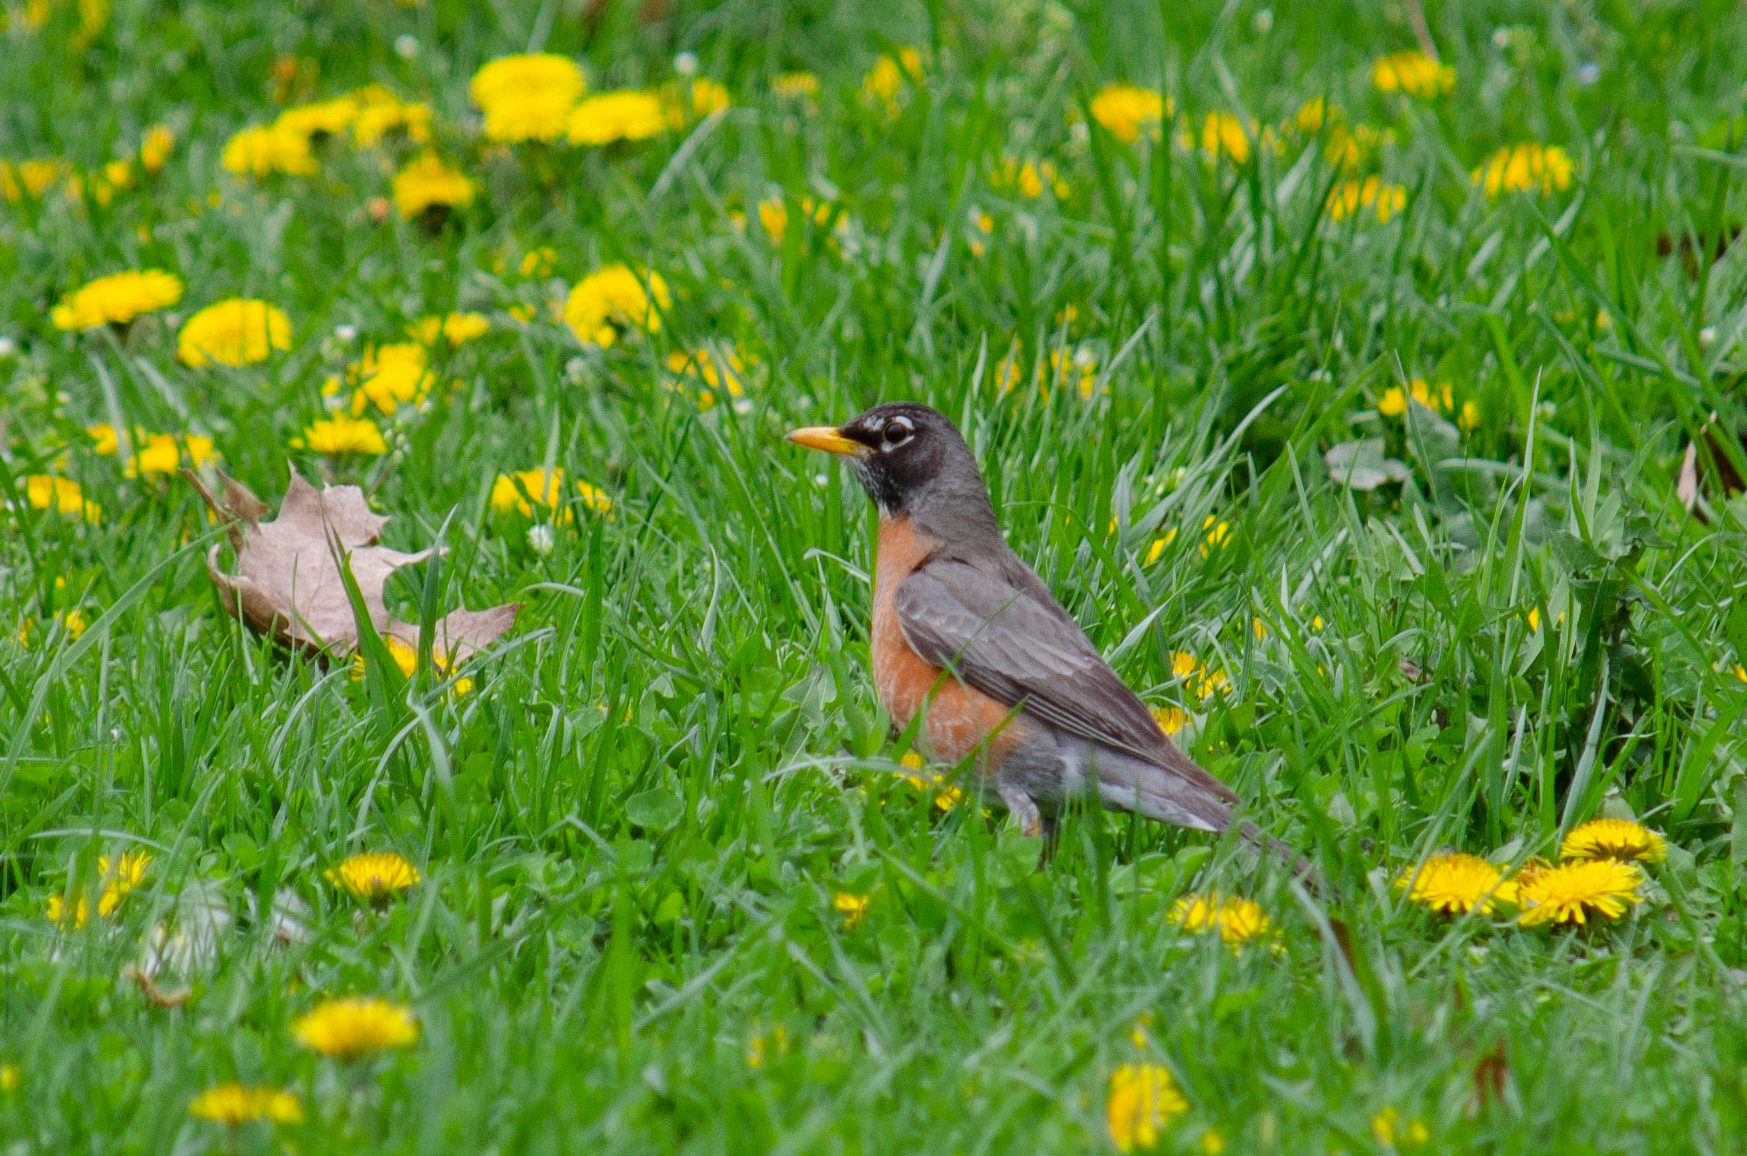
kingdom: Animalia
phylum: Chordata
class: Aves
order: Passeriformes
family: Turdidae
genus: Turdus
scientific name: Turdus migratorius
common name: American robin
